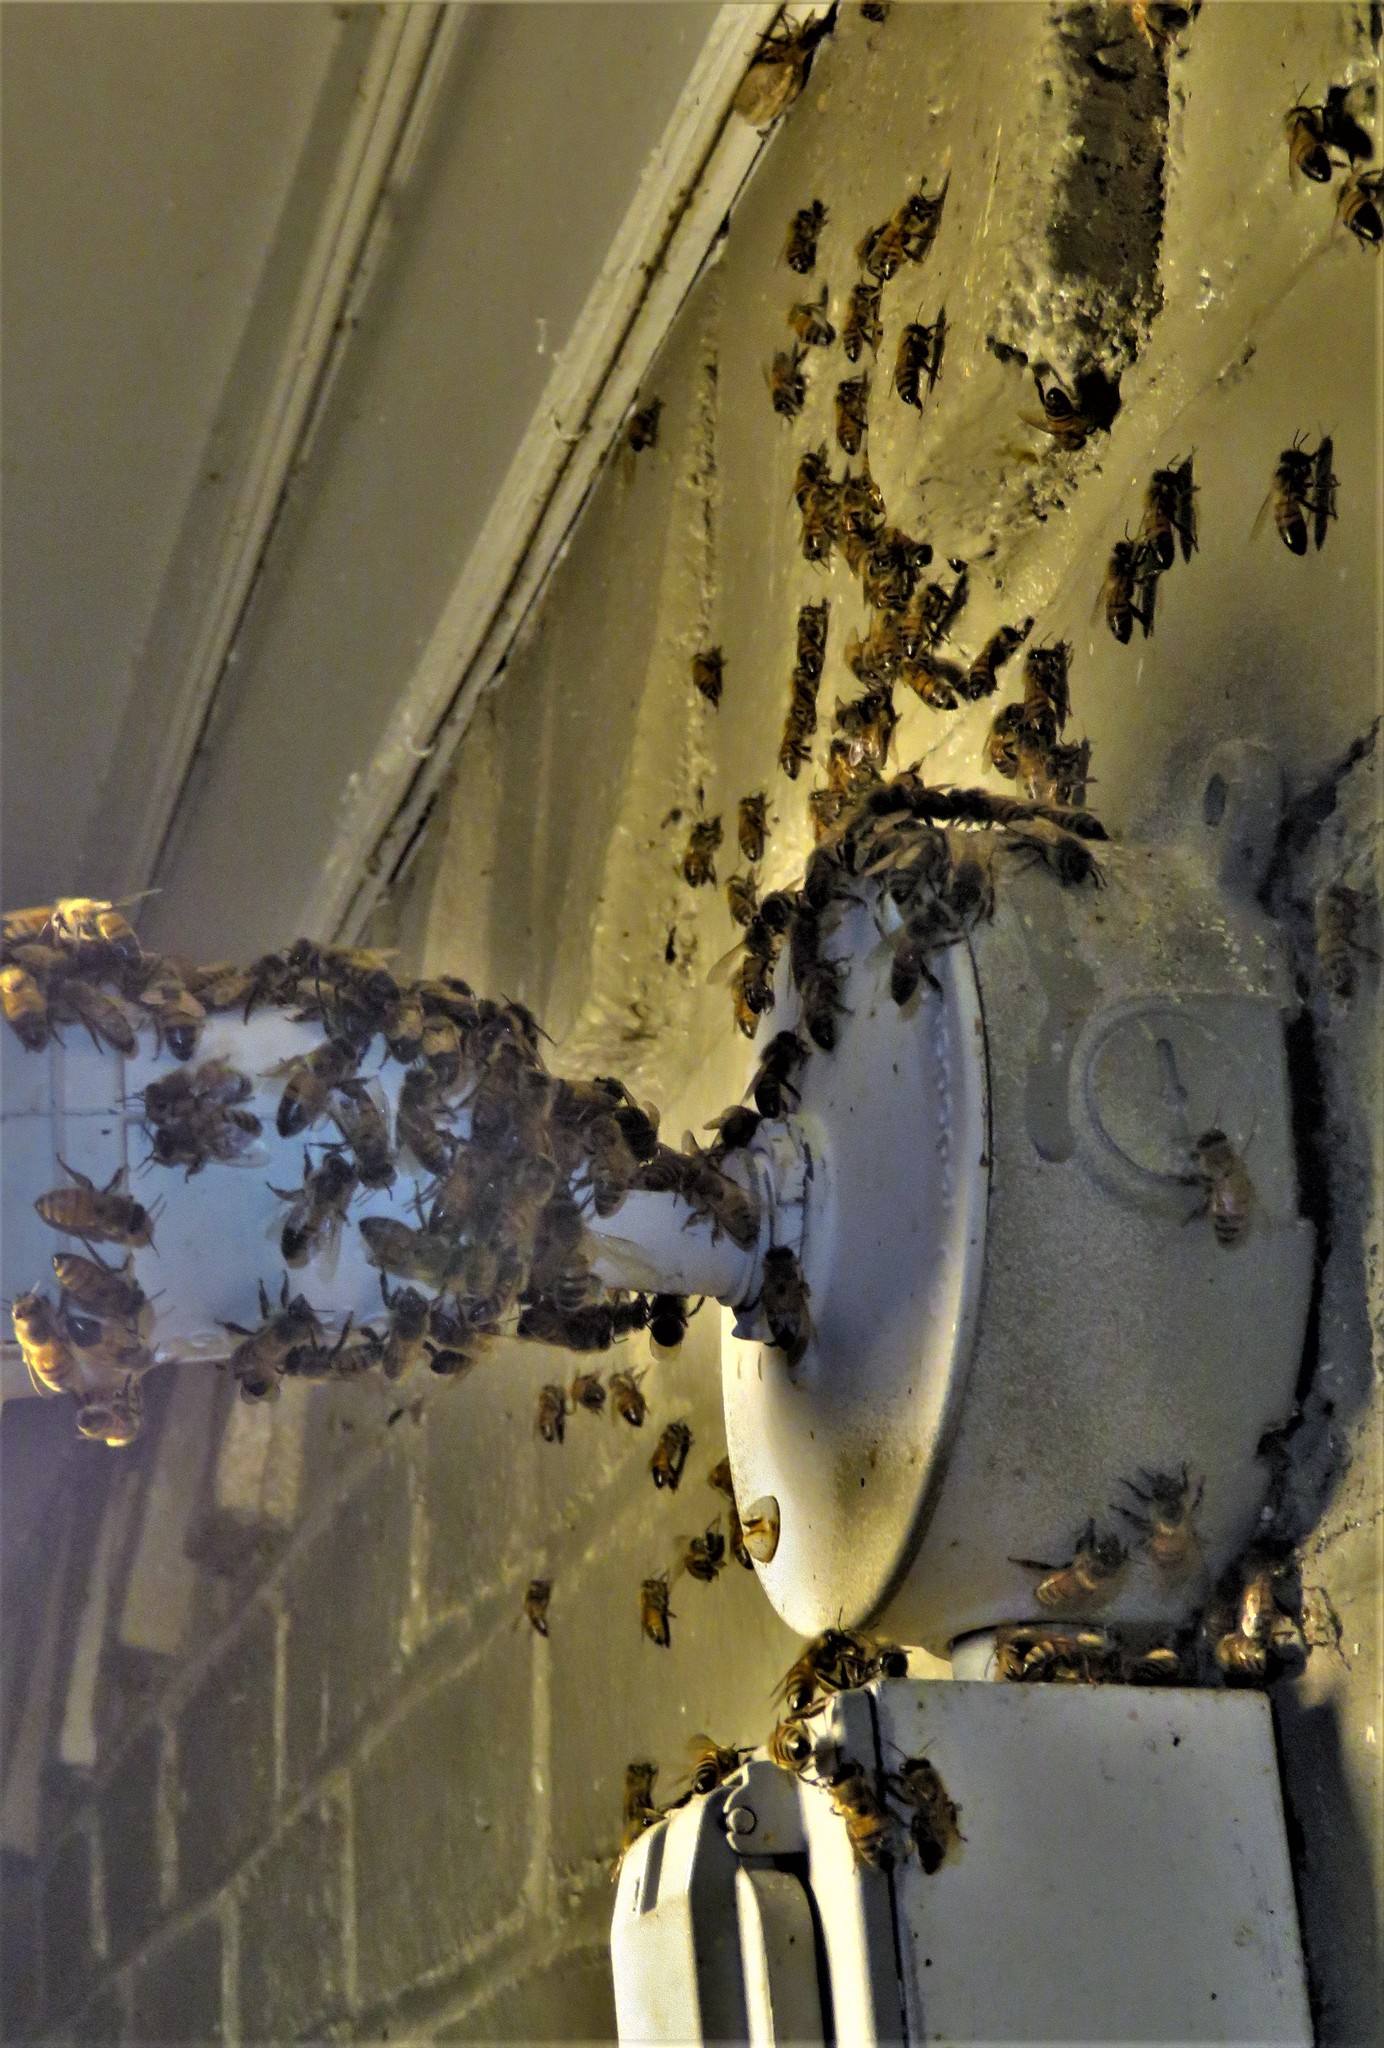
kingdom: Animalia
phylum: Arthropoda
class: Insecta
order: Hymenoptera
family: Apidae
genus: Apis
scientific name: Apis mellifera
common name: Honey bee
